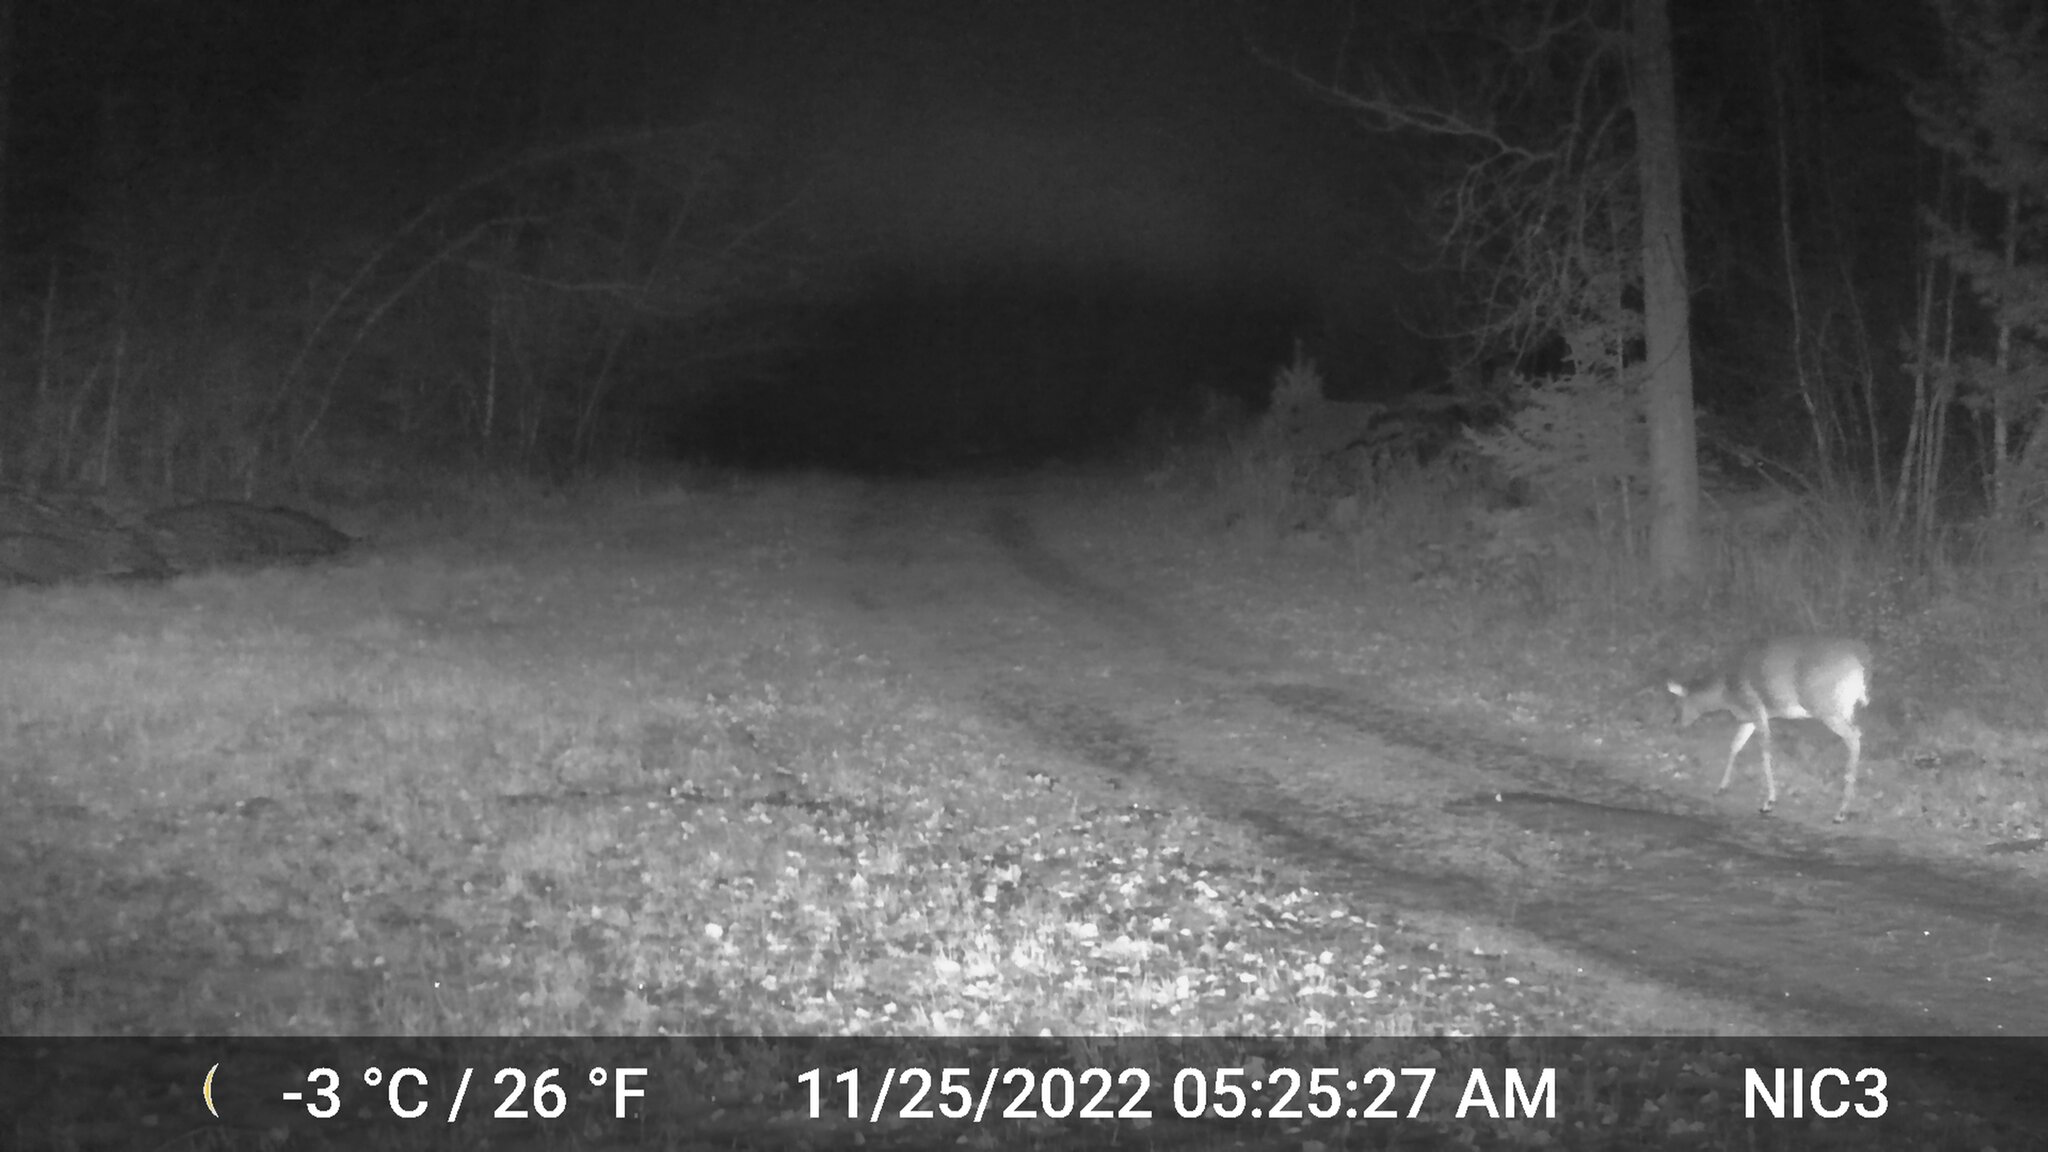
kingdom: Animalia
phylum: Chordata
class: Mammalia
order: Artiodactyla
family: Cervidae
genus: Odocoileus
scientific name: Odocoileus virginianus
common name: White-tailed deer
